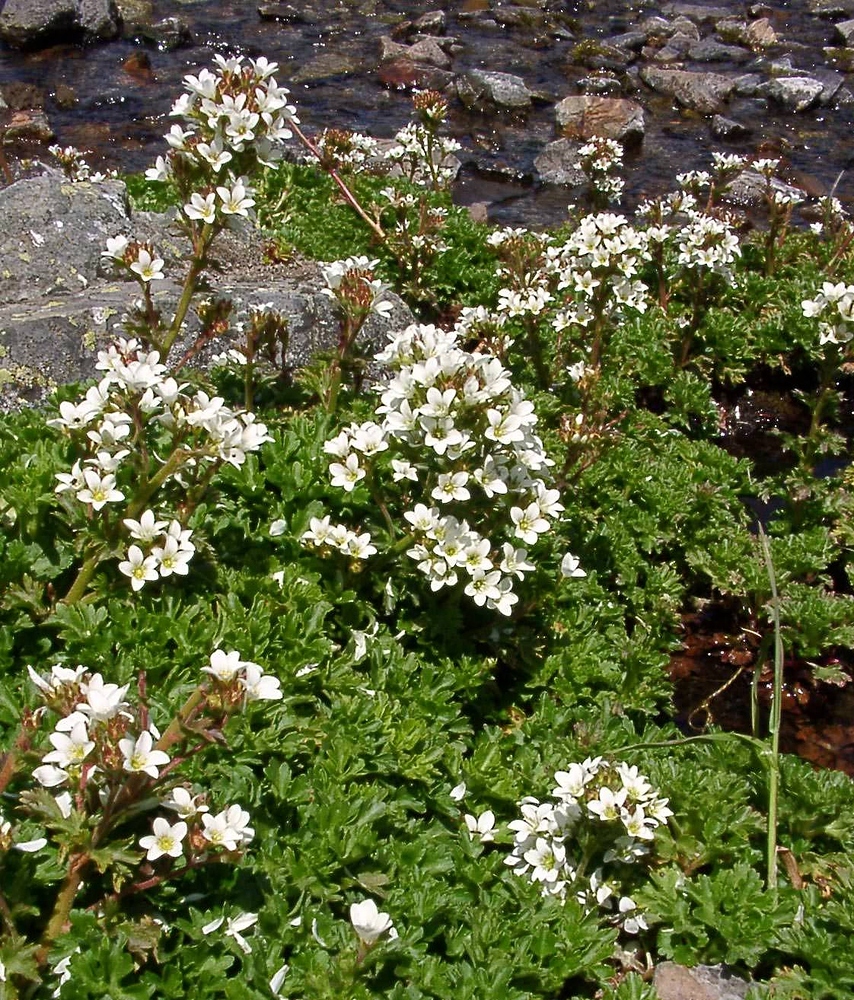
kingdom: Plantae
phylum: Tracheophyta
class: Magnoliopsida
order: Saxifragales
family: Saxifragaceae
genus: Saxifraga
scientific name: Saxifraga aquatica
